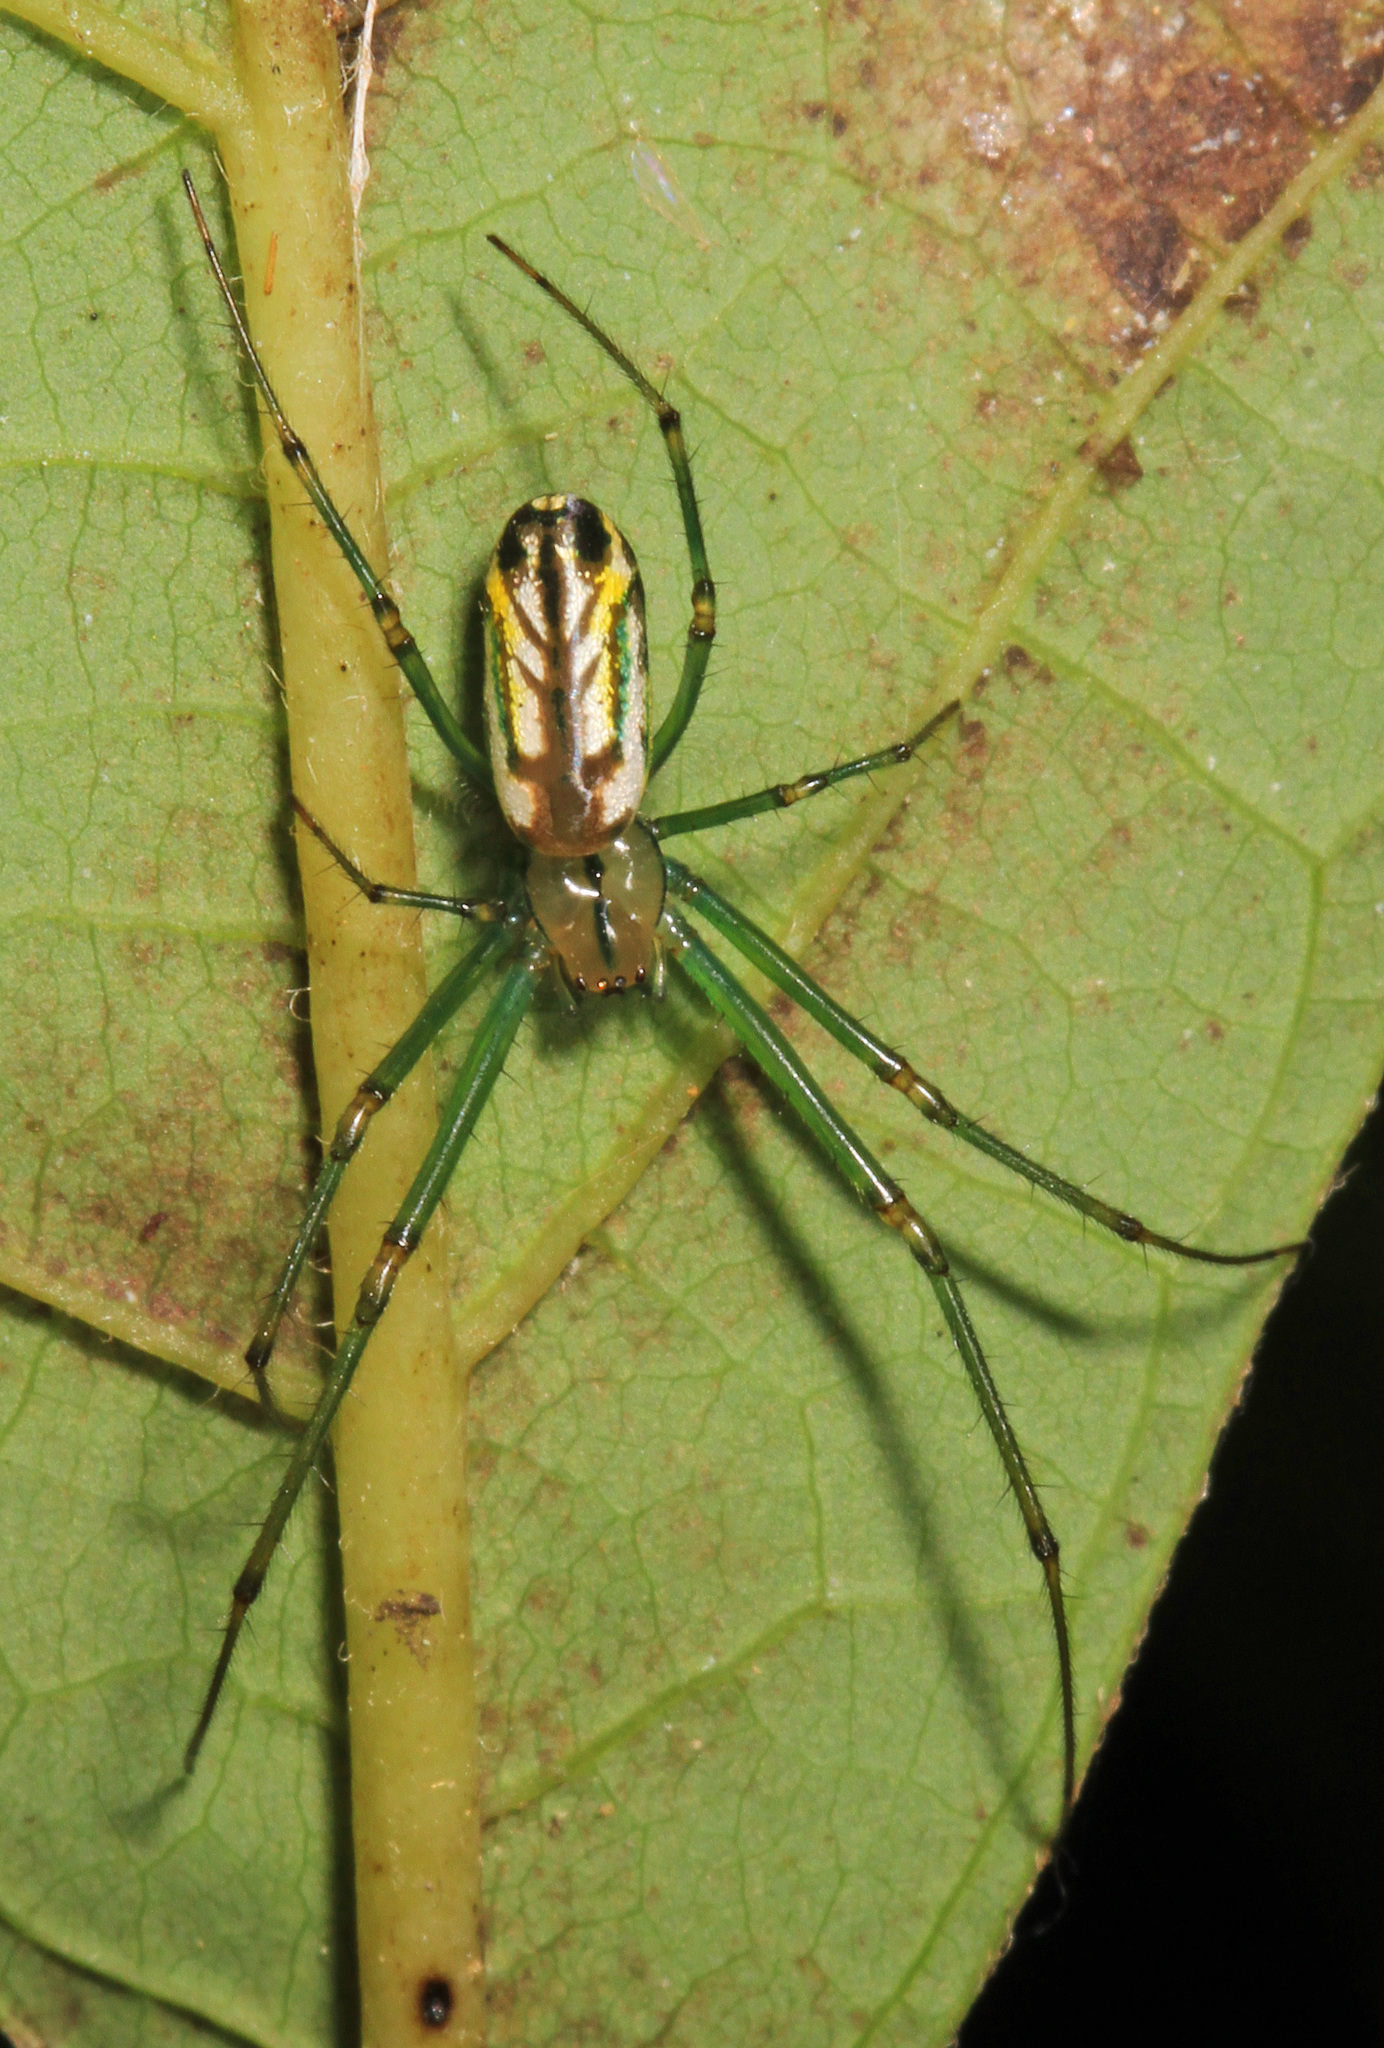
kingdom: Animalia
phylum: Arthropoda
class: Arachnida
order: Araneae
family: Tetragnathidae
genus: Leucauge
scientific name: Leucauge venusta
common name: Longjawed orb weavers
